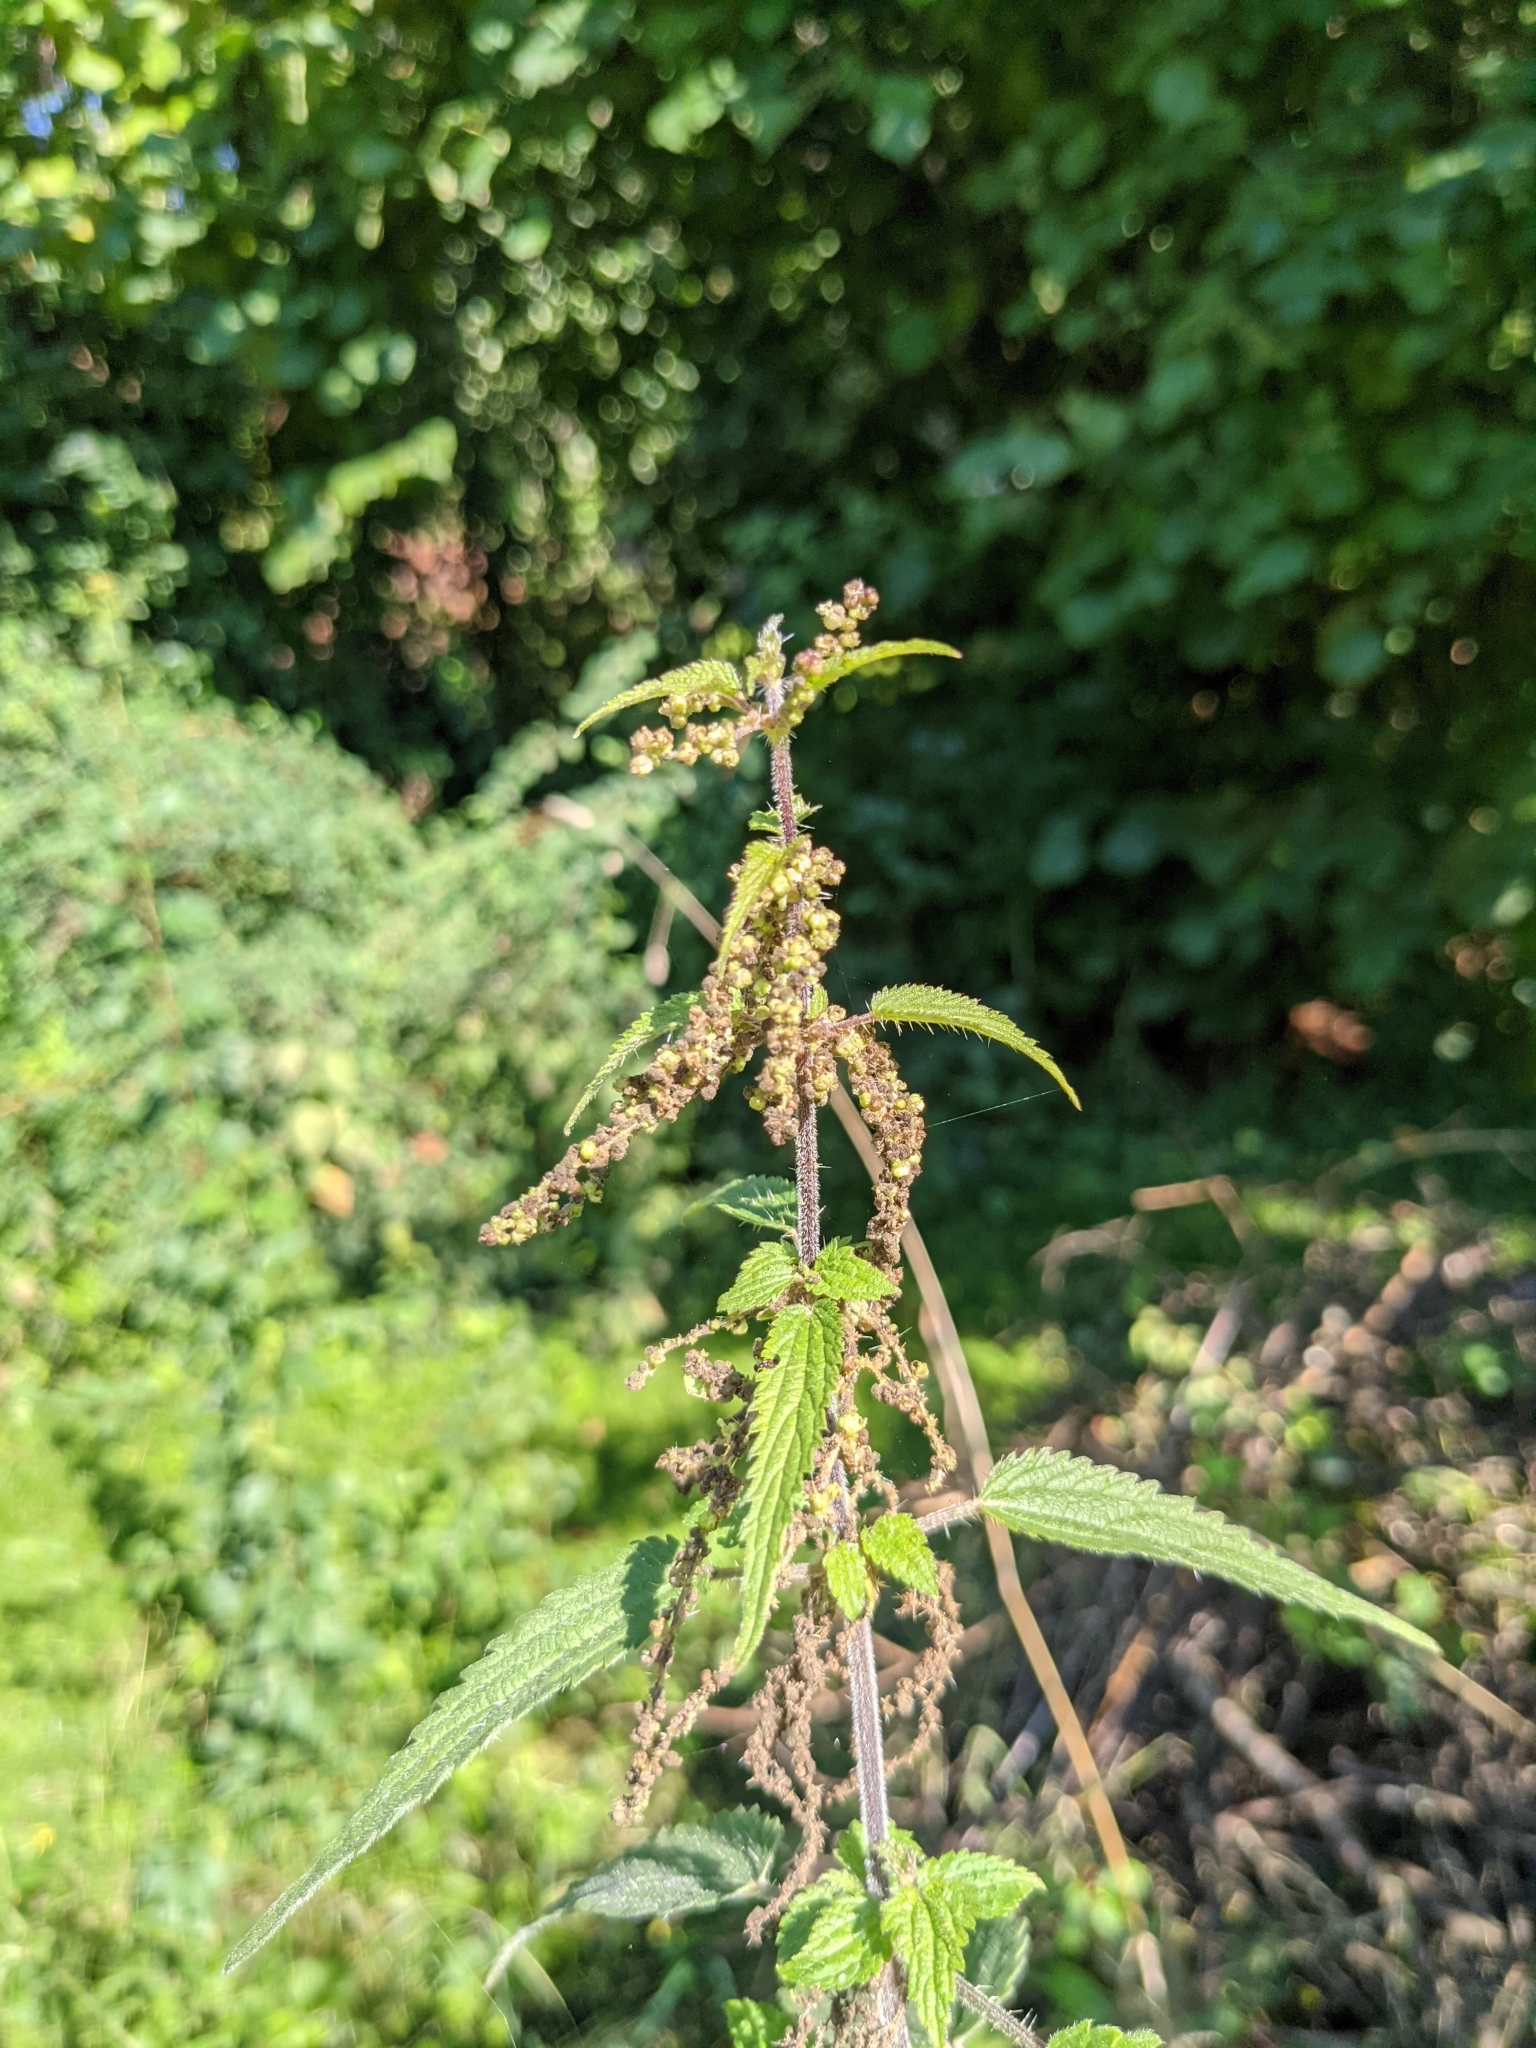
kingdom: Plantae
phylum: Tracheophyta
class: Magnoliopsida
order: Rosales
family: Urticaceae
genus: Urtica
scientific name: Urtica dioica
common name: Common nettle
